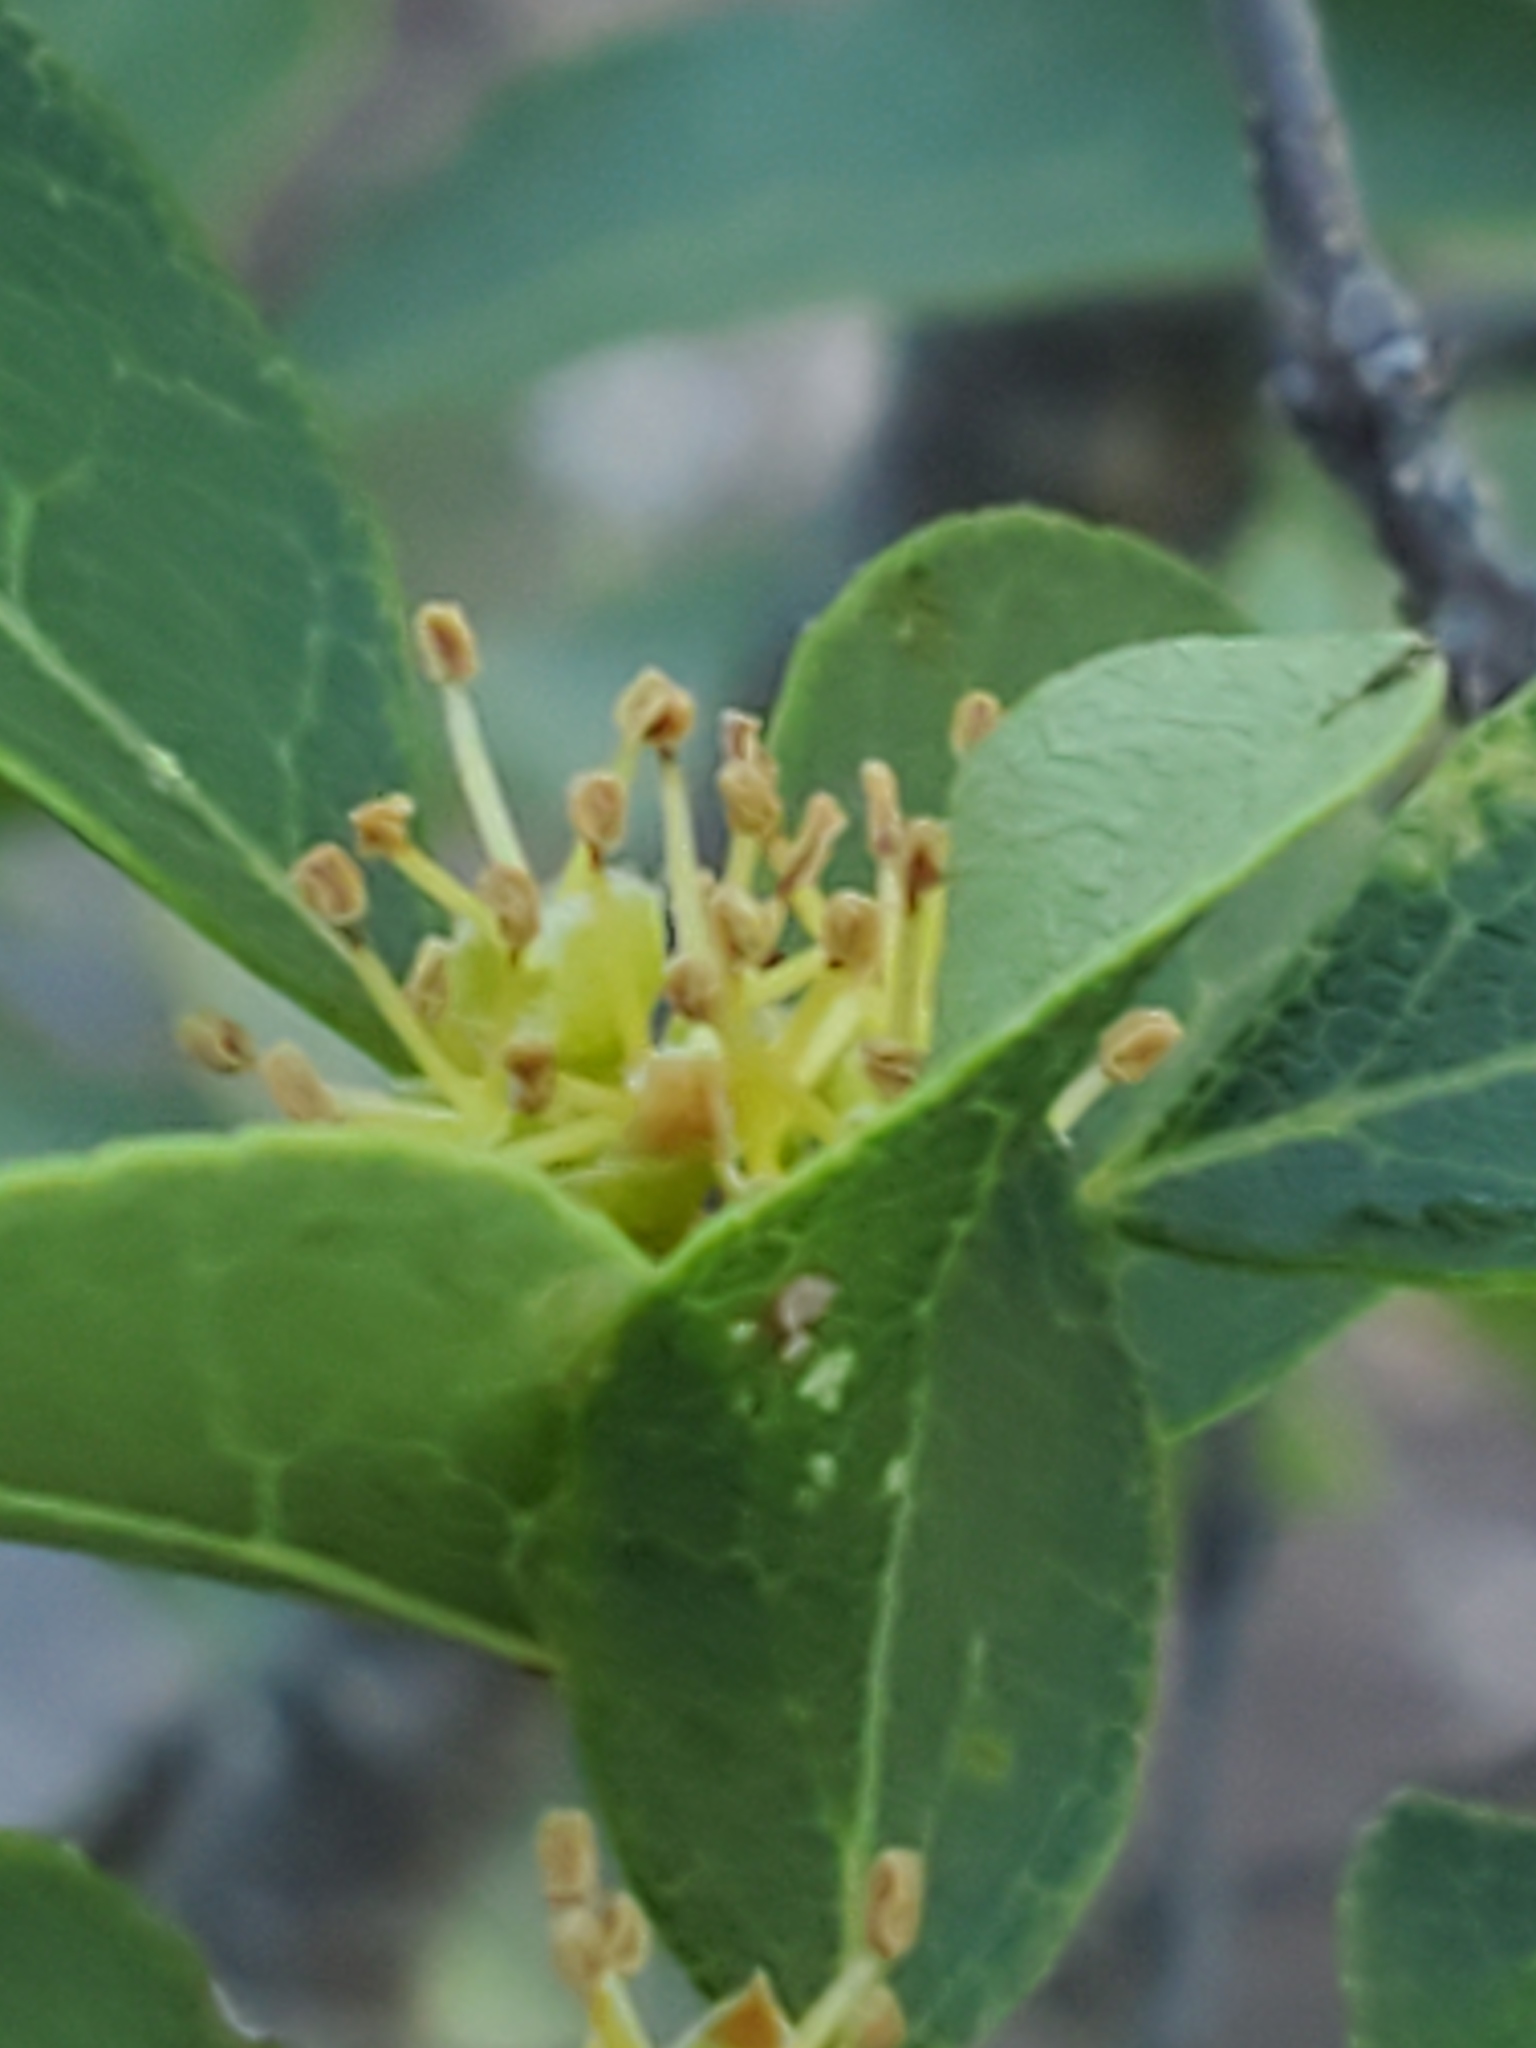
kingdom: Plantae
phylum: Tracheophyta
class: Magnoliopsida
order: Lamiales
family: Oleaceae
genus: Forestiera
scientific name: Forestiera reticulata
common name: Netleaf swamp-privet
